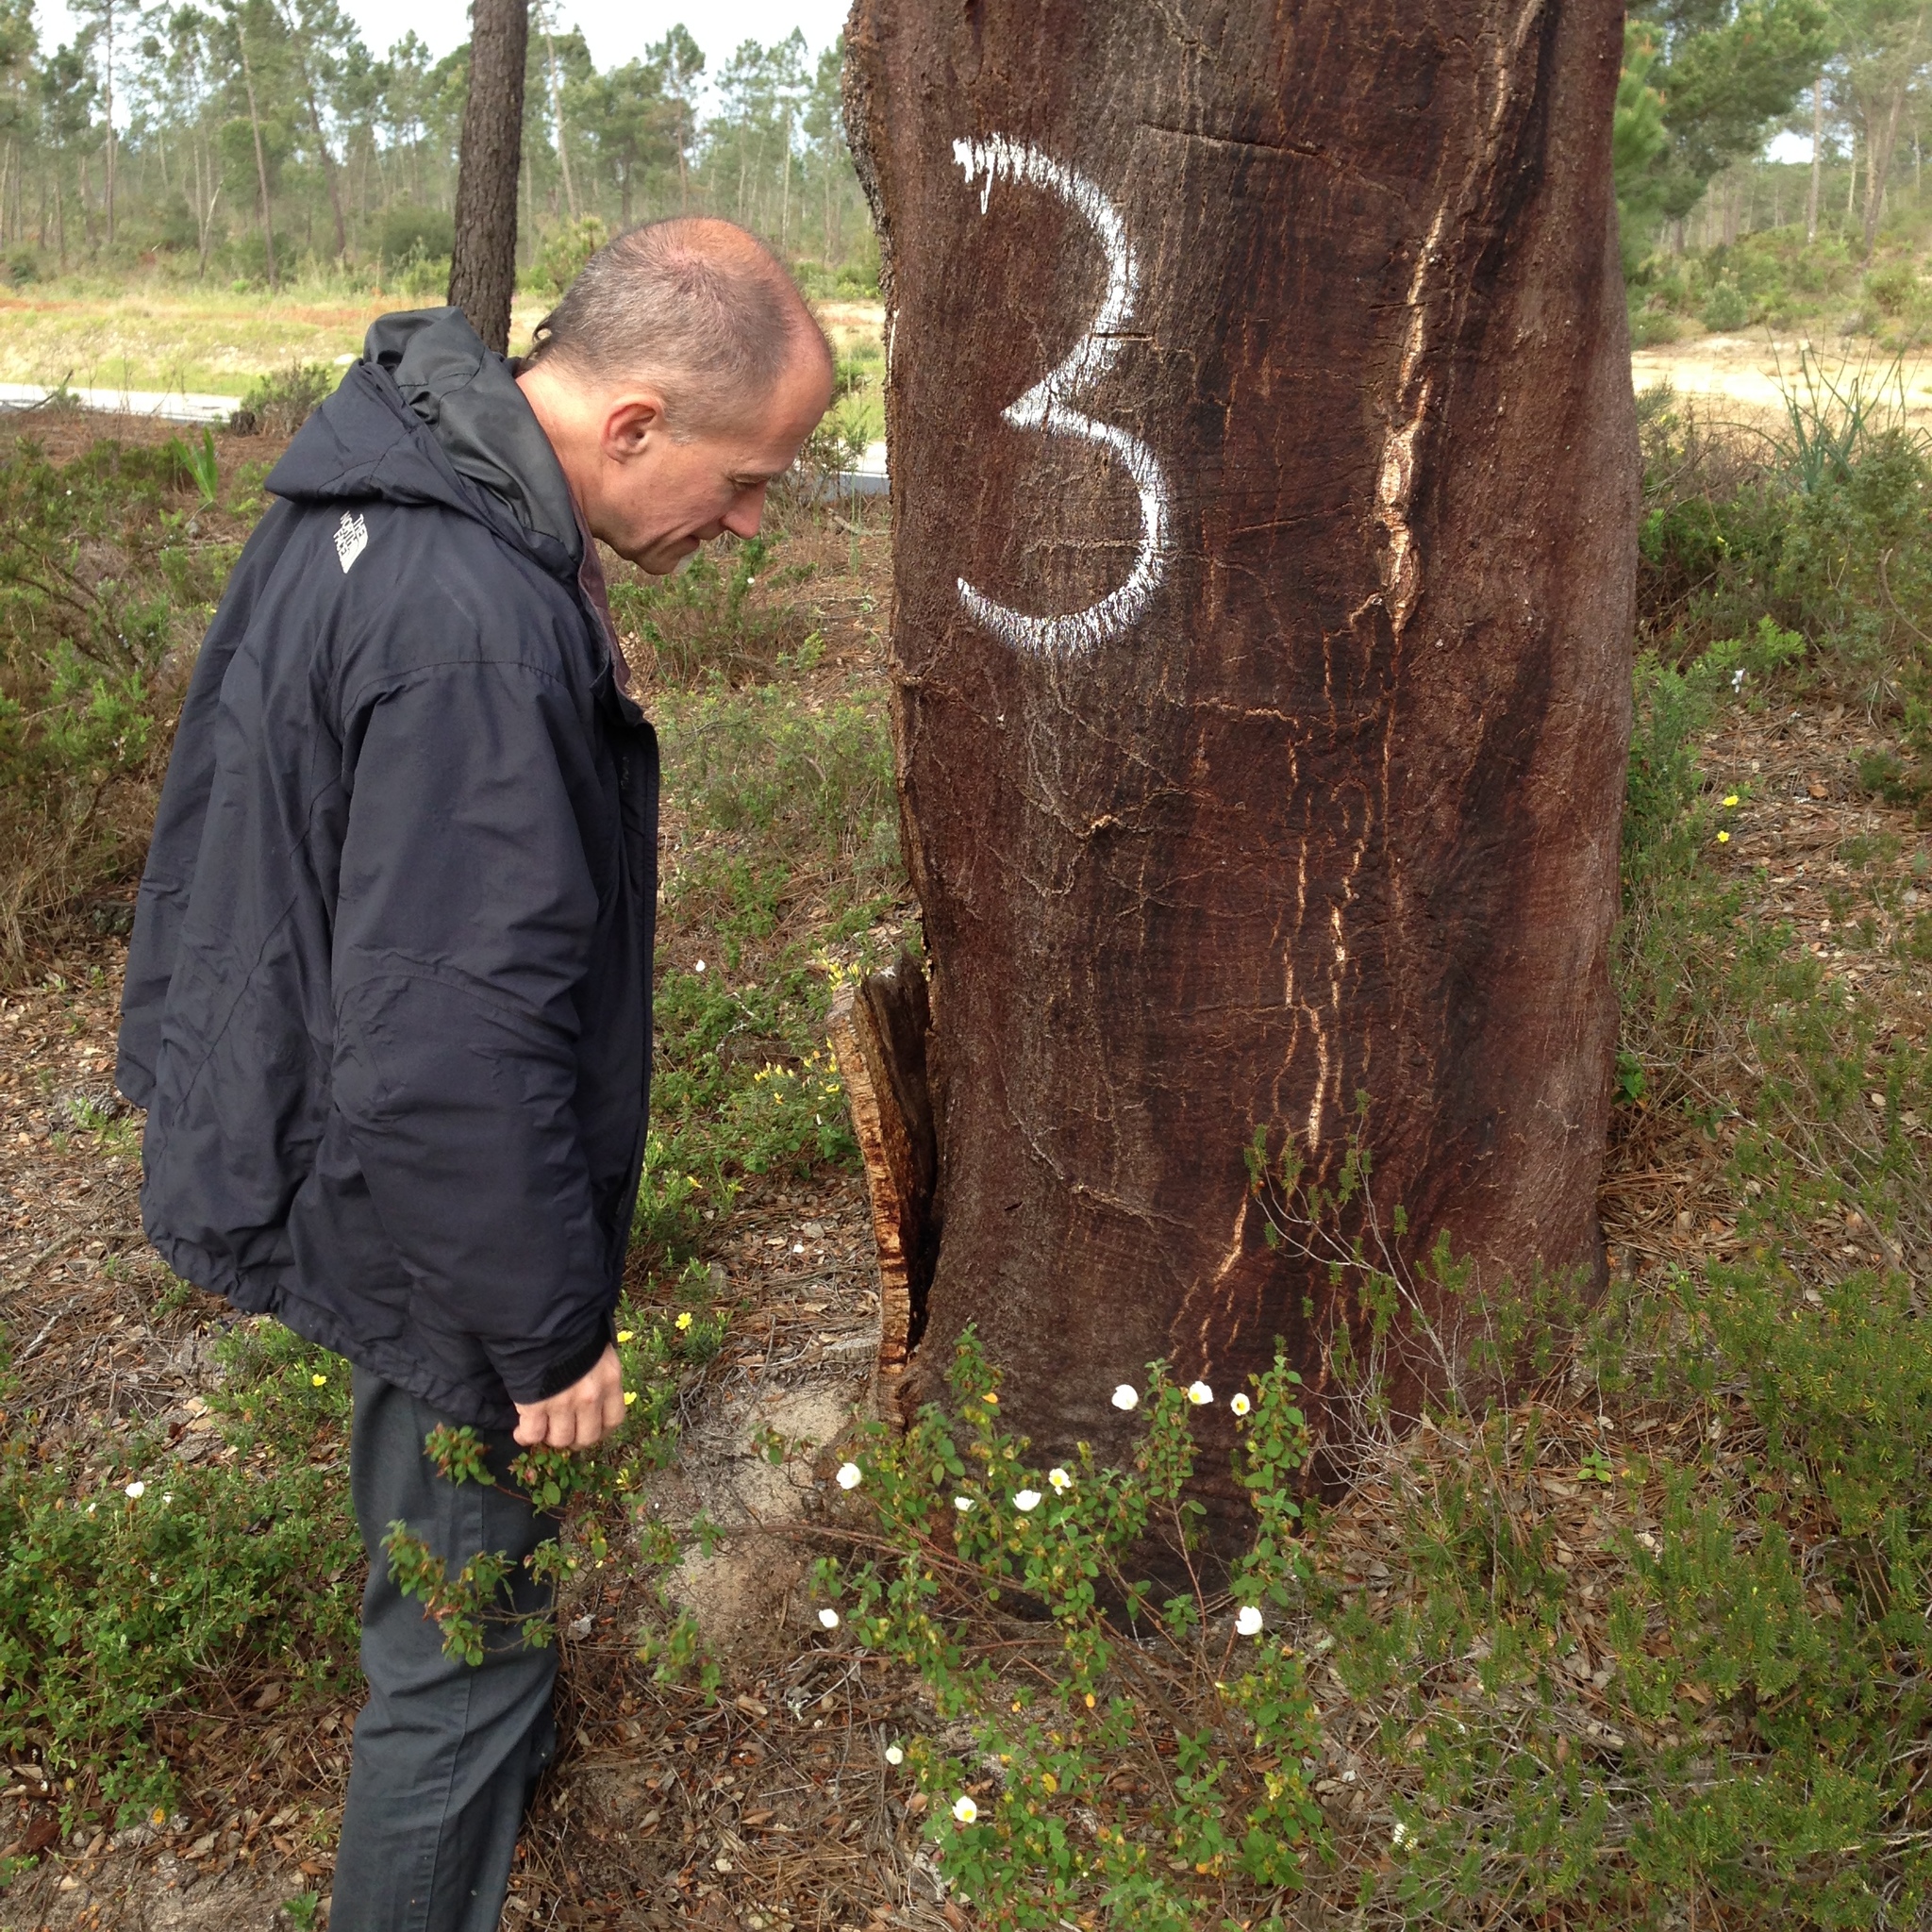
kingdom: Plantae
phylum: Tracheophyta
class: Magnoliopsida
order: Fagales
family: Fagaceae
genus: Quercus
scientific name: Quercus suber
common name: Cork oak
